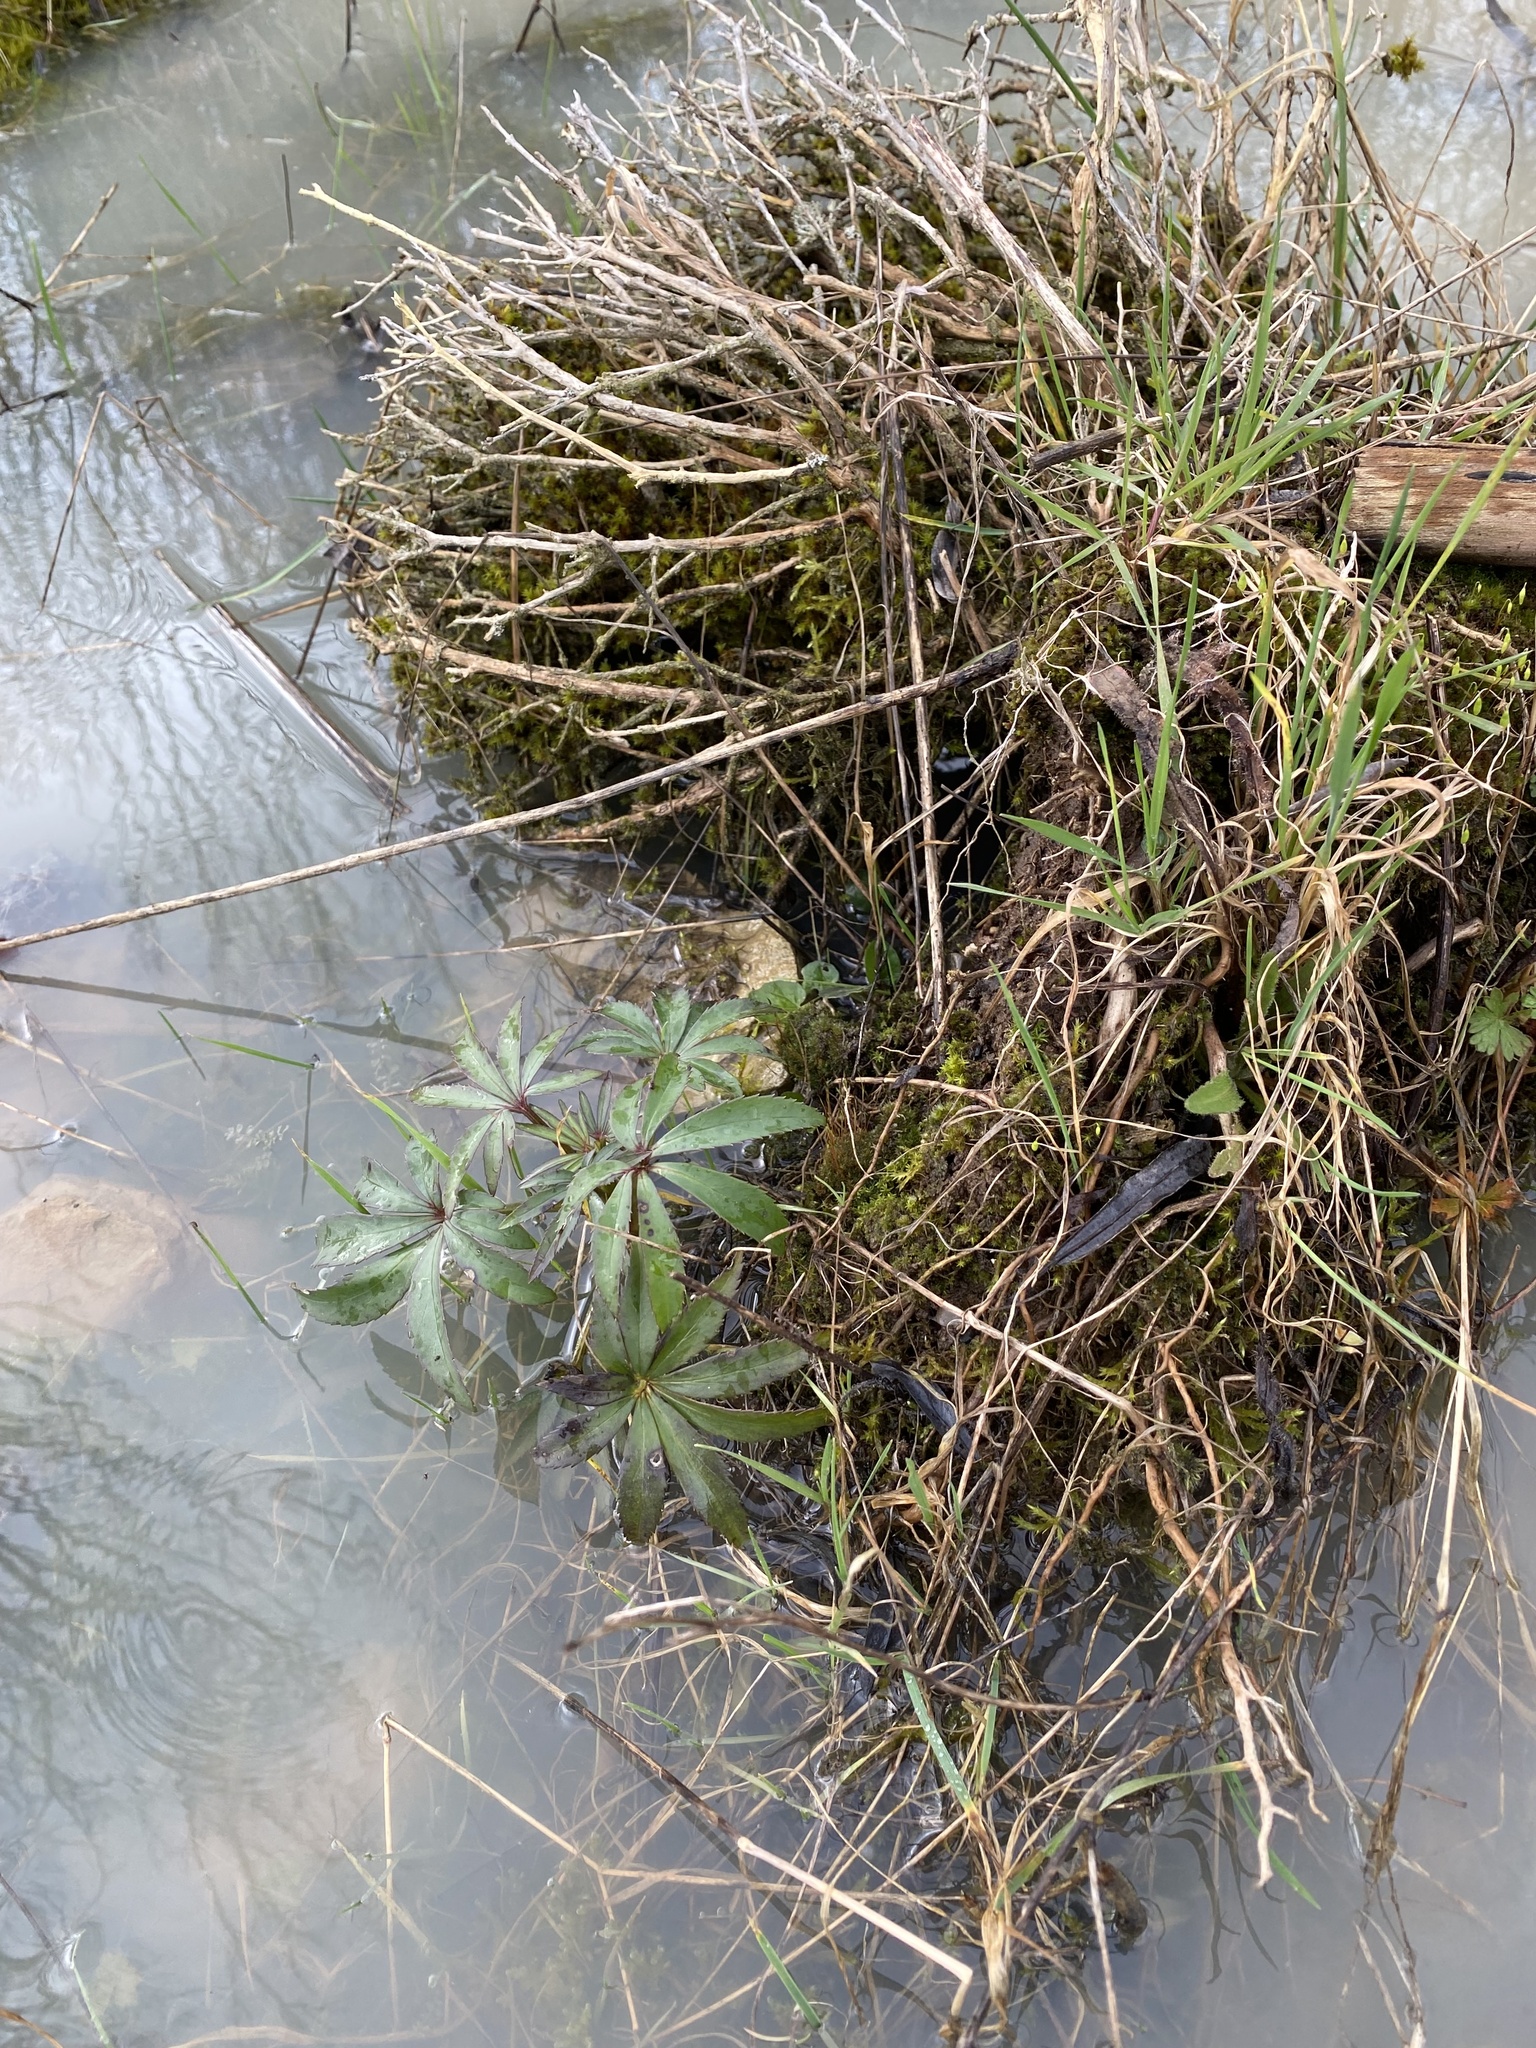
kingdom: Plantae
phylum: Tracheophyta
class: Magnoliopsida
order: Ranunculales
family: Ranunculaceae
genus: Helleborus
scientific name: Helleborus foetidus
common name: Stinking hellebore
